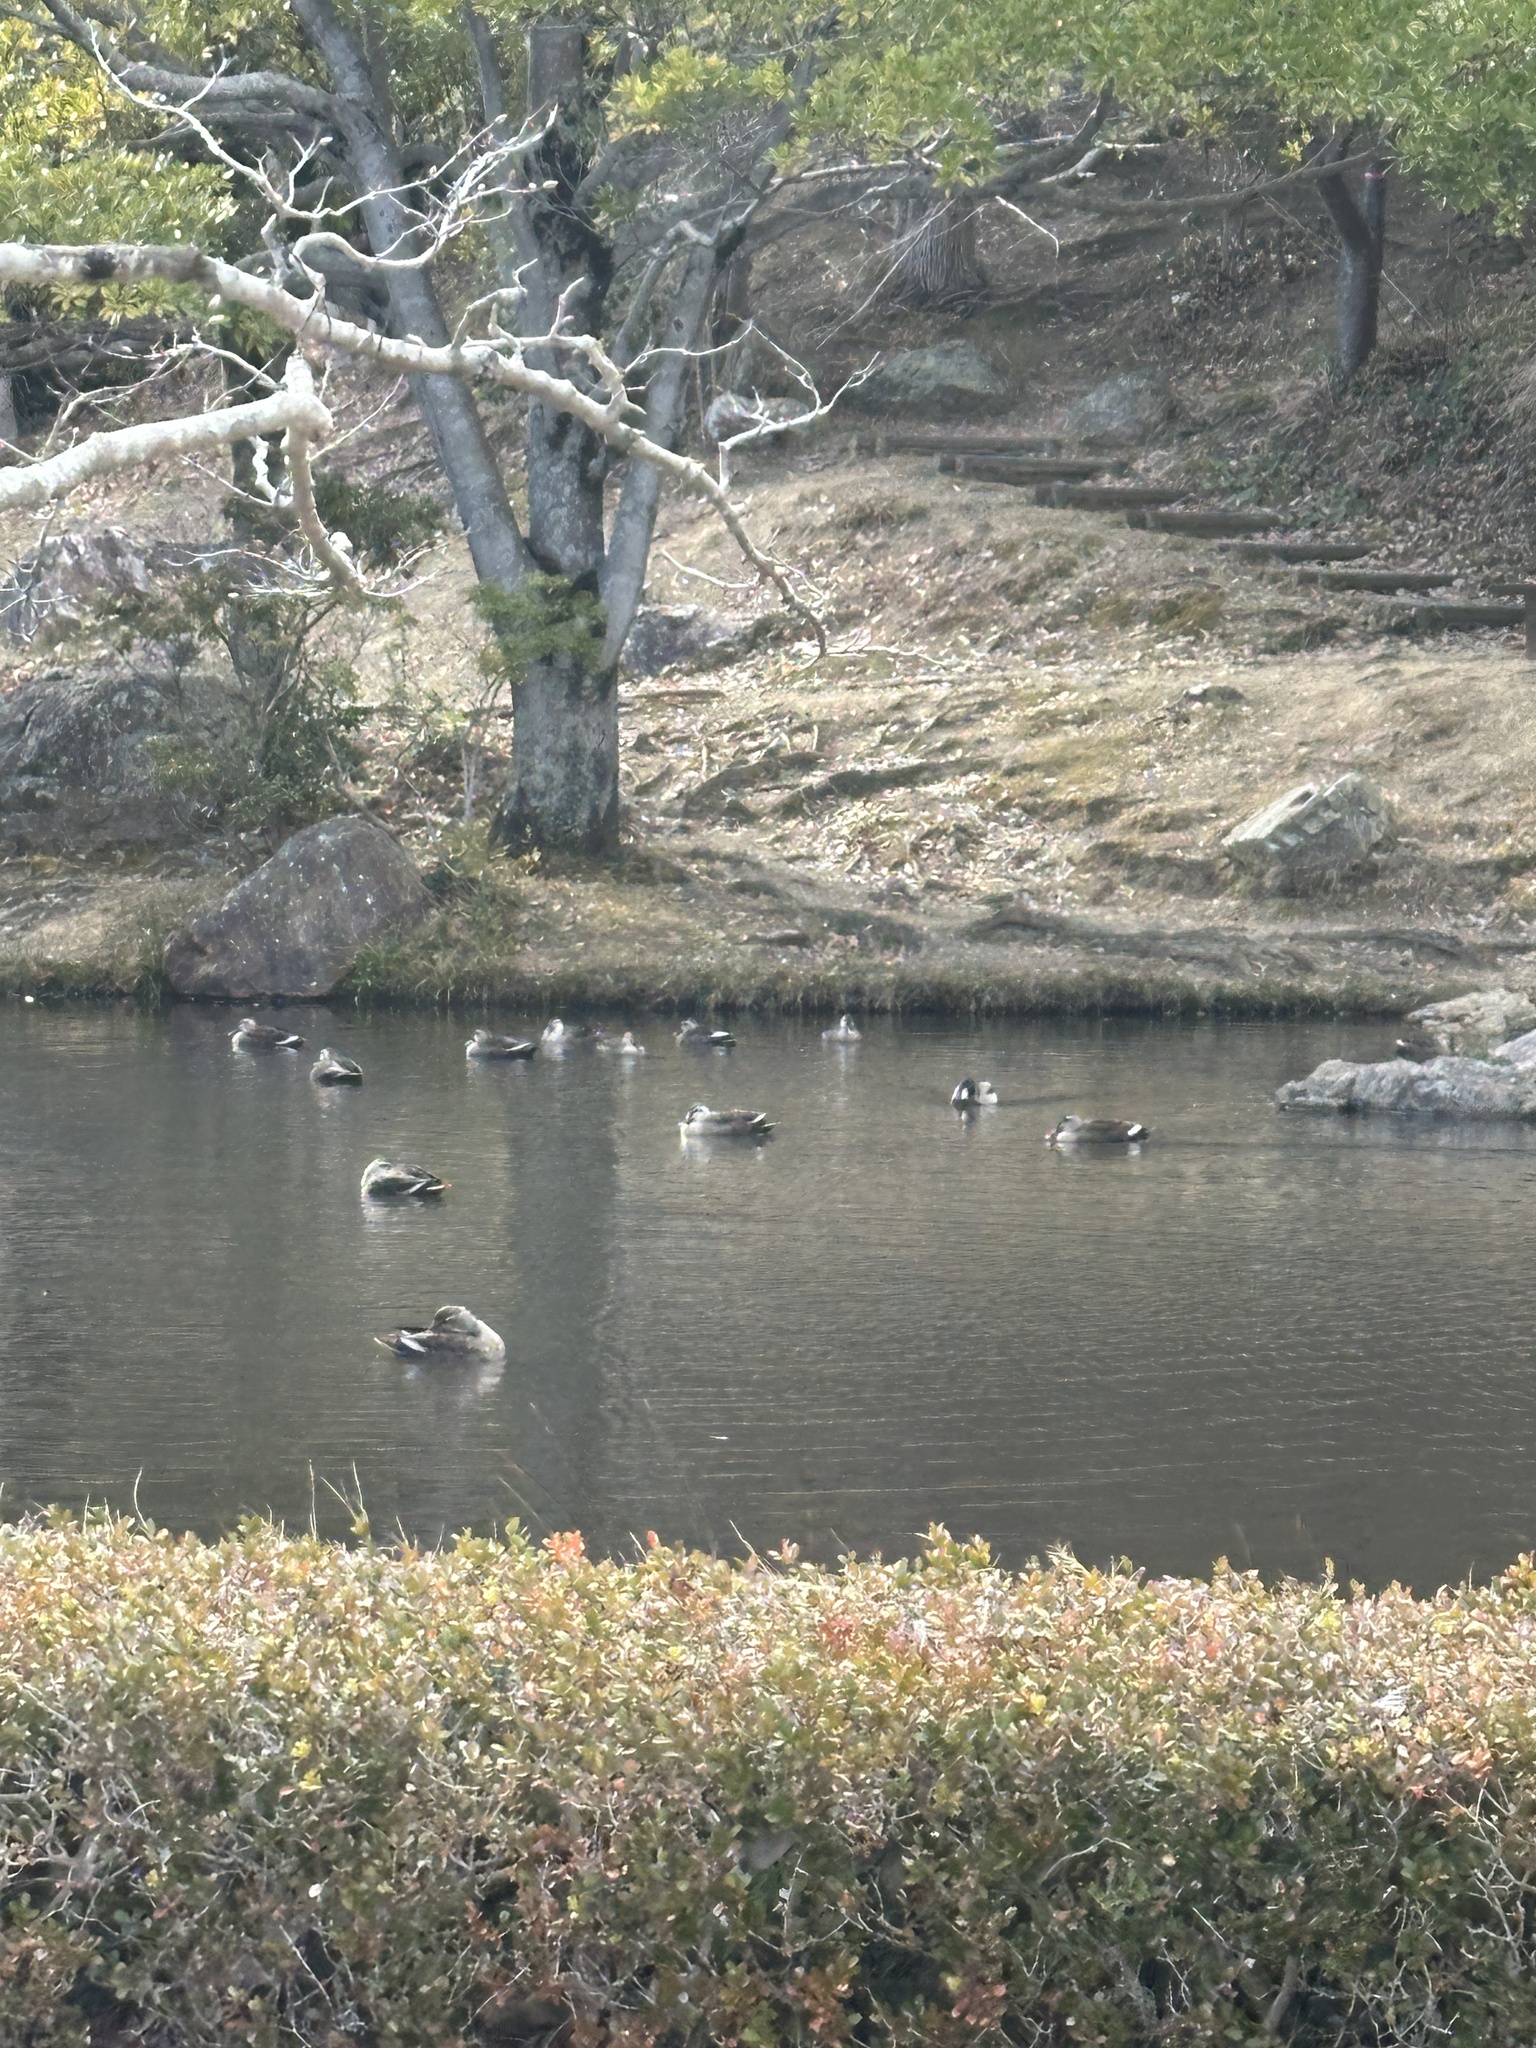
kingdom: Animalia
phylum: Chordata
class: Aves
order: Anseriformes
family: Anatidae
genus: Anas
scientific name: Anas zonorhyncha
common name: Eastern spot-billed duck
